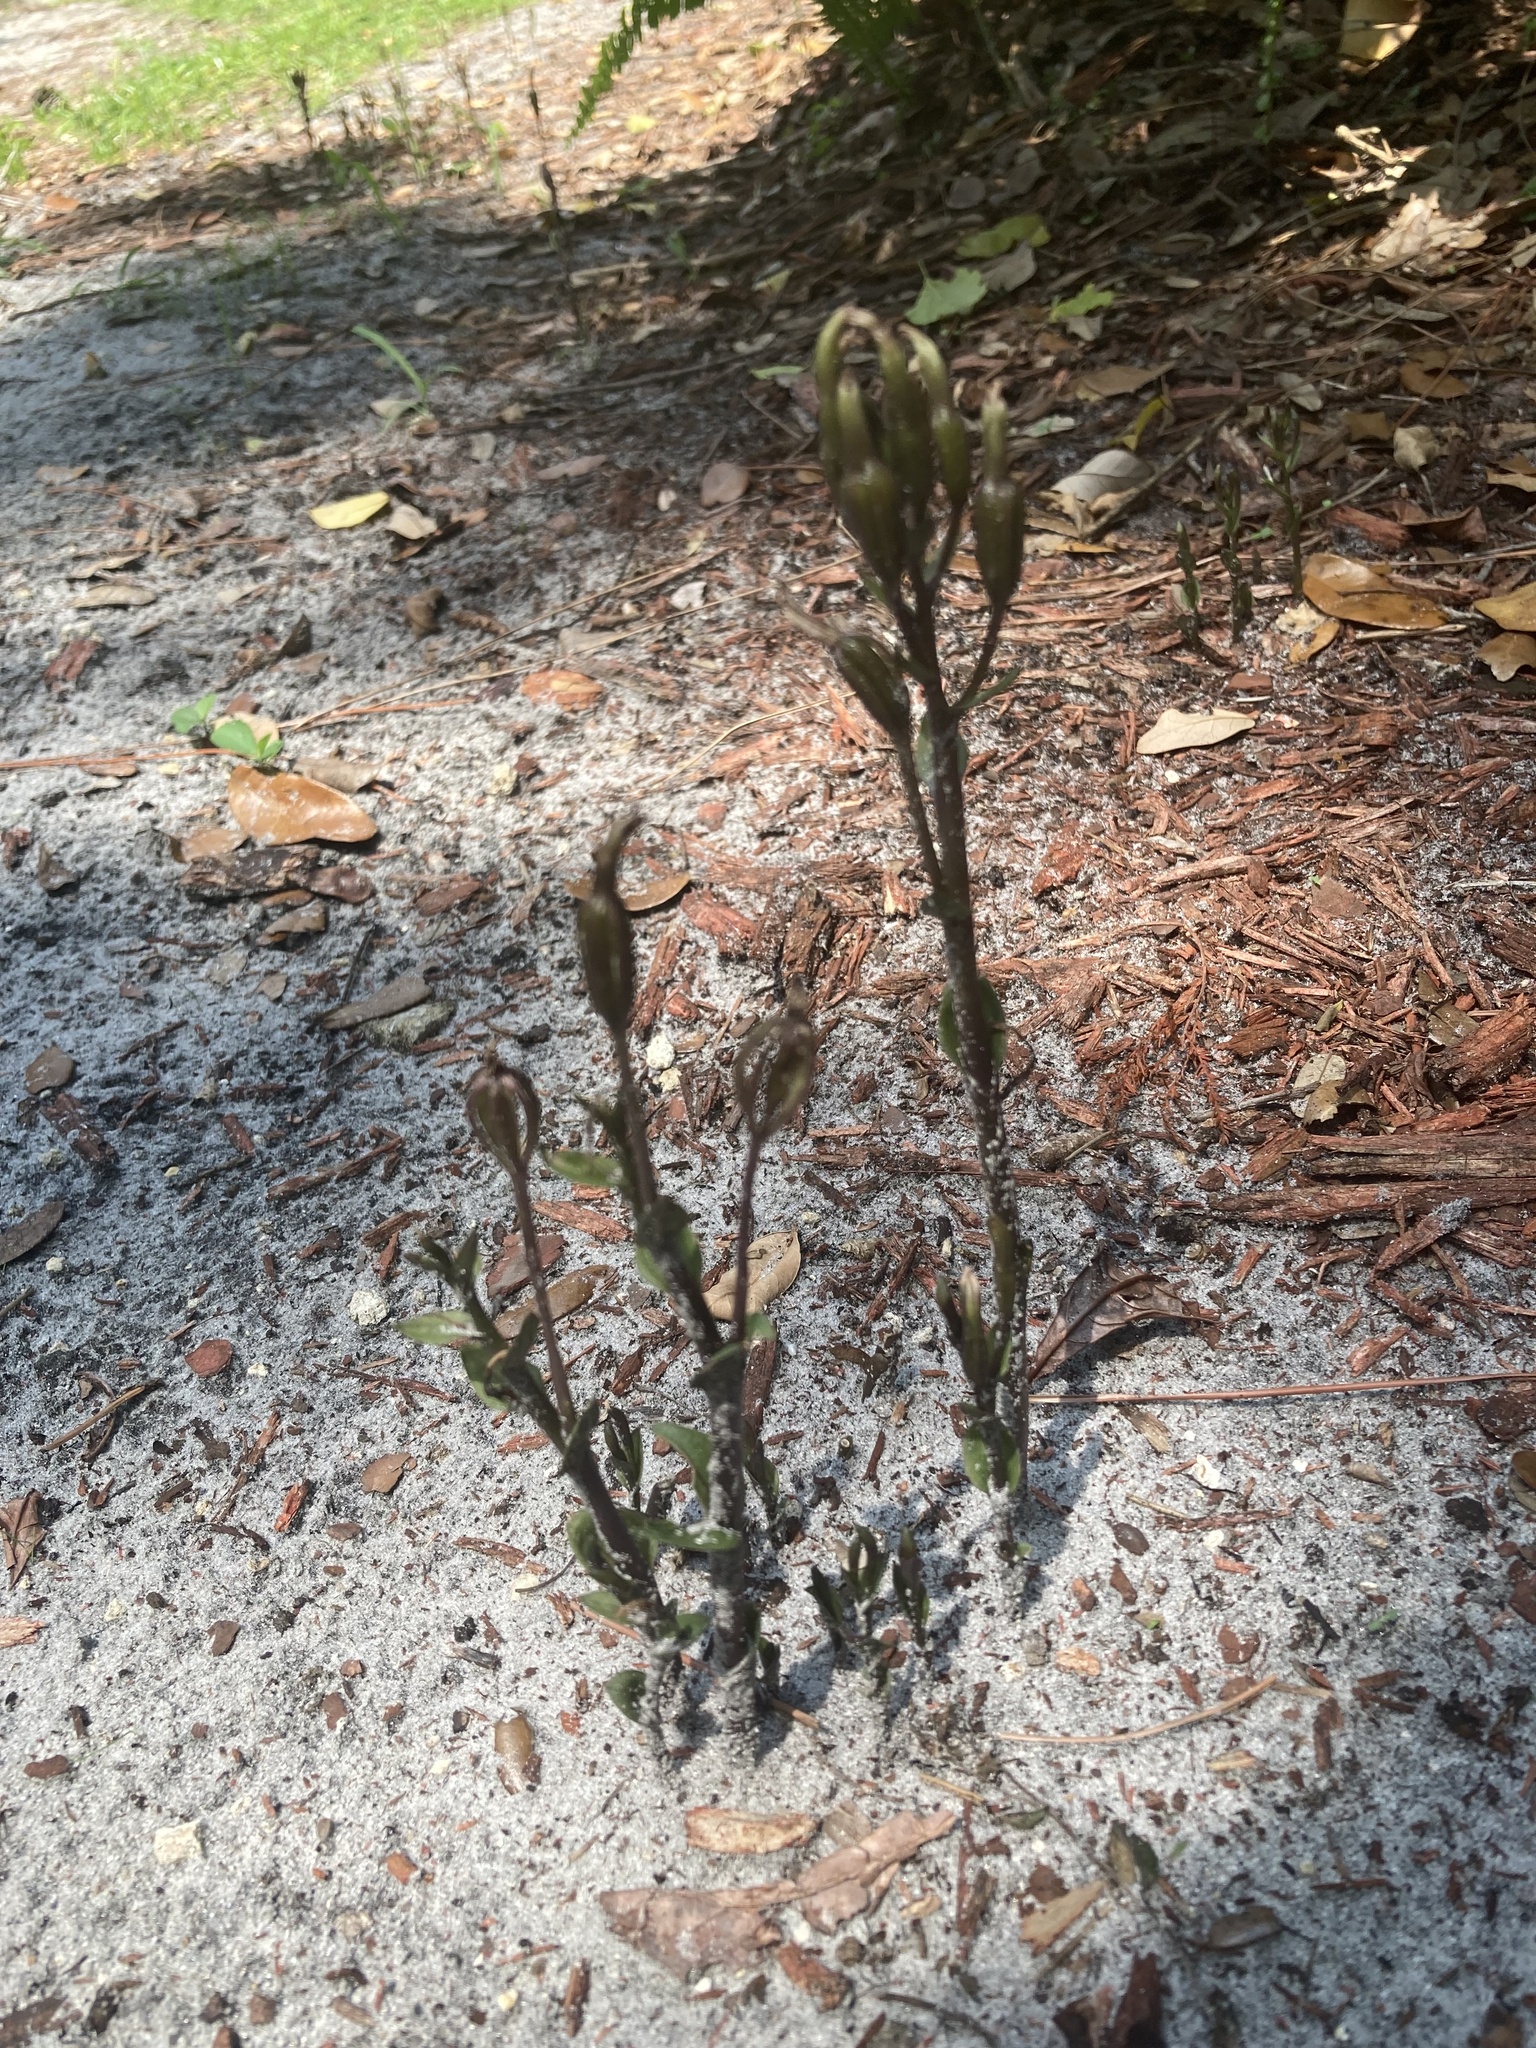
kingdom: Plantae
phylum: Tracheophyta
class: Liliopsida
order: Asparagales
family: Orchidaceae
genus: Triphora
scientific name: Triphora gentianoides
